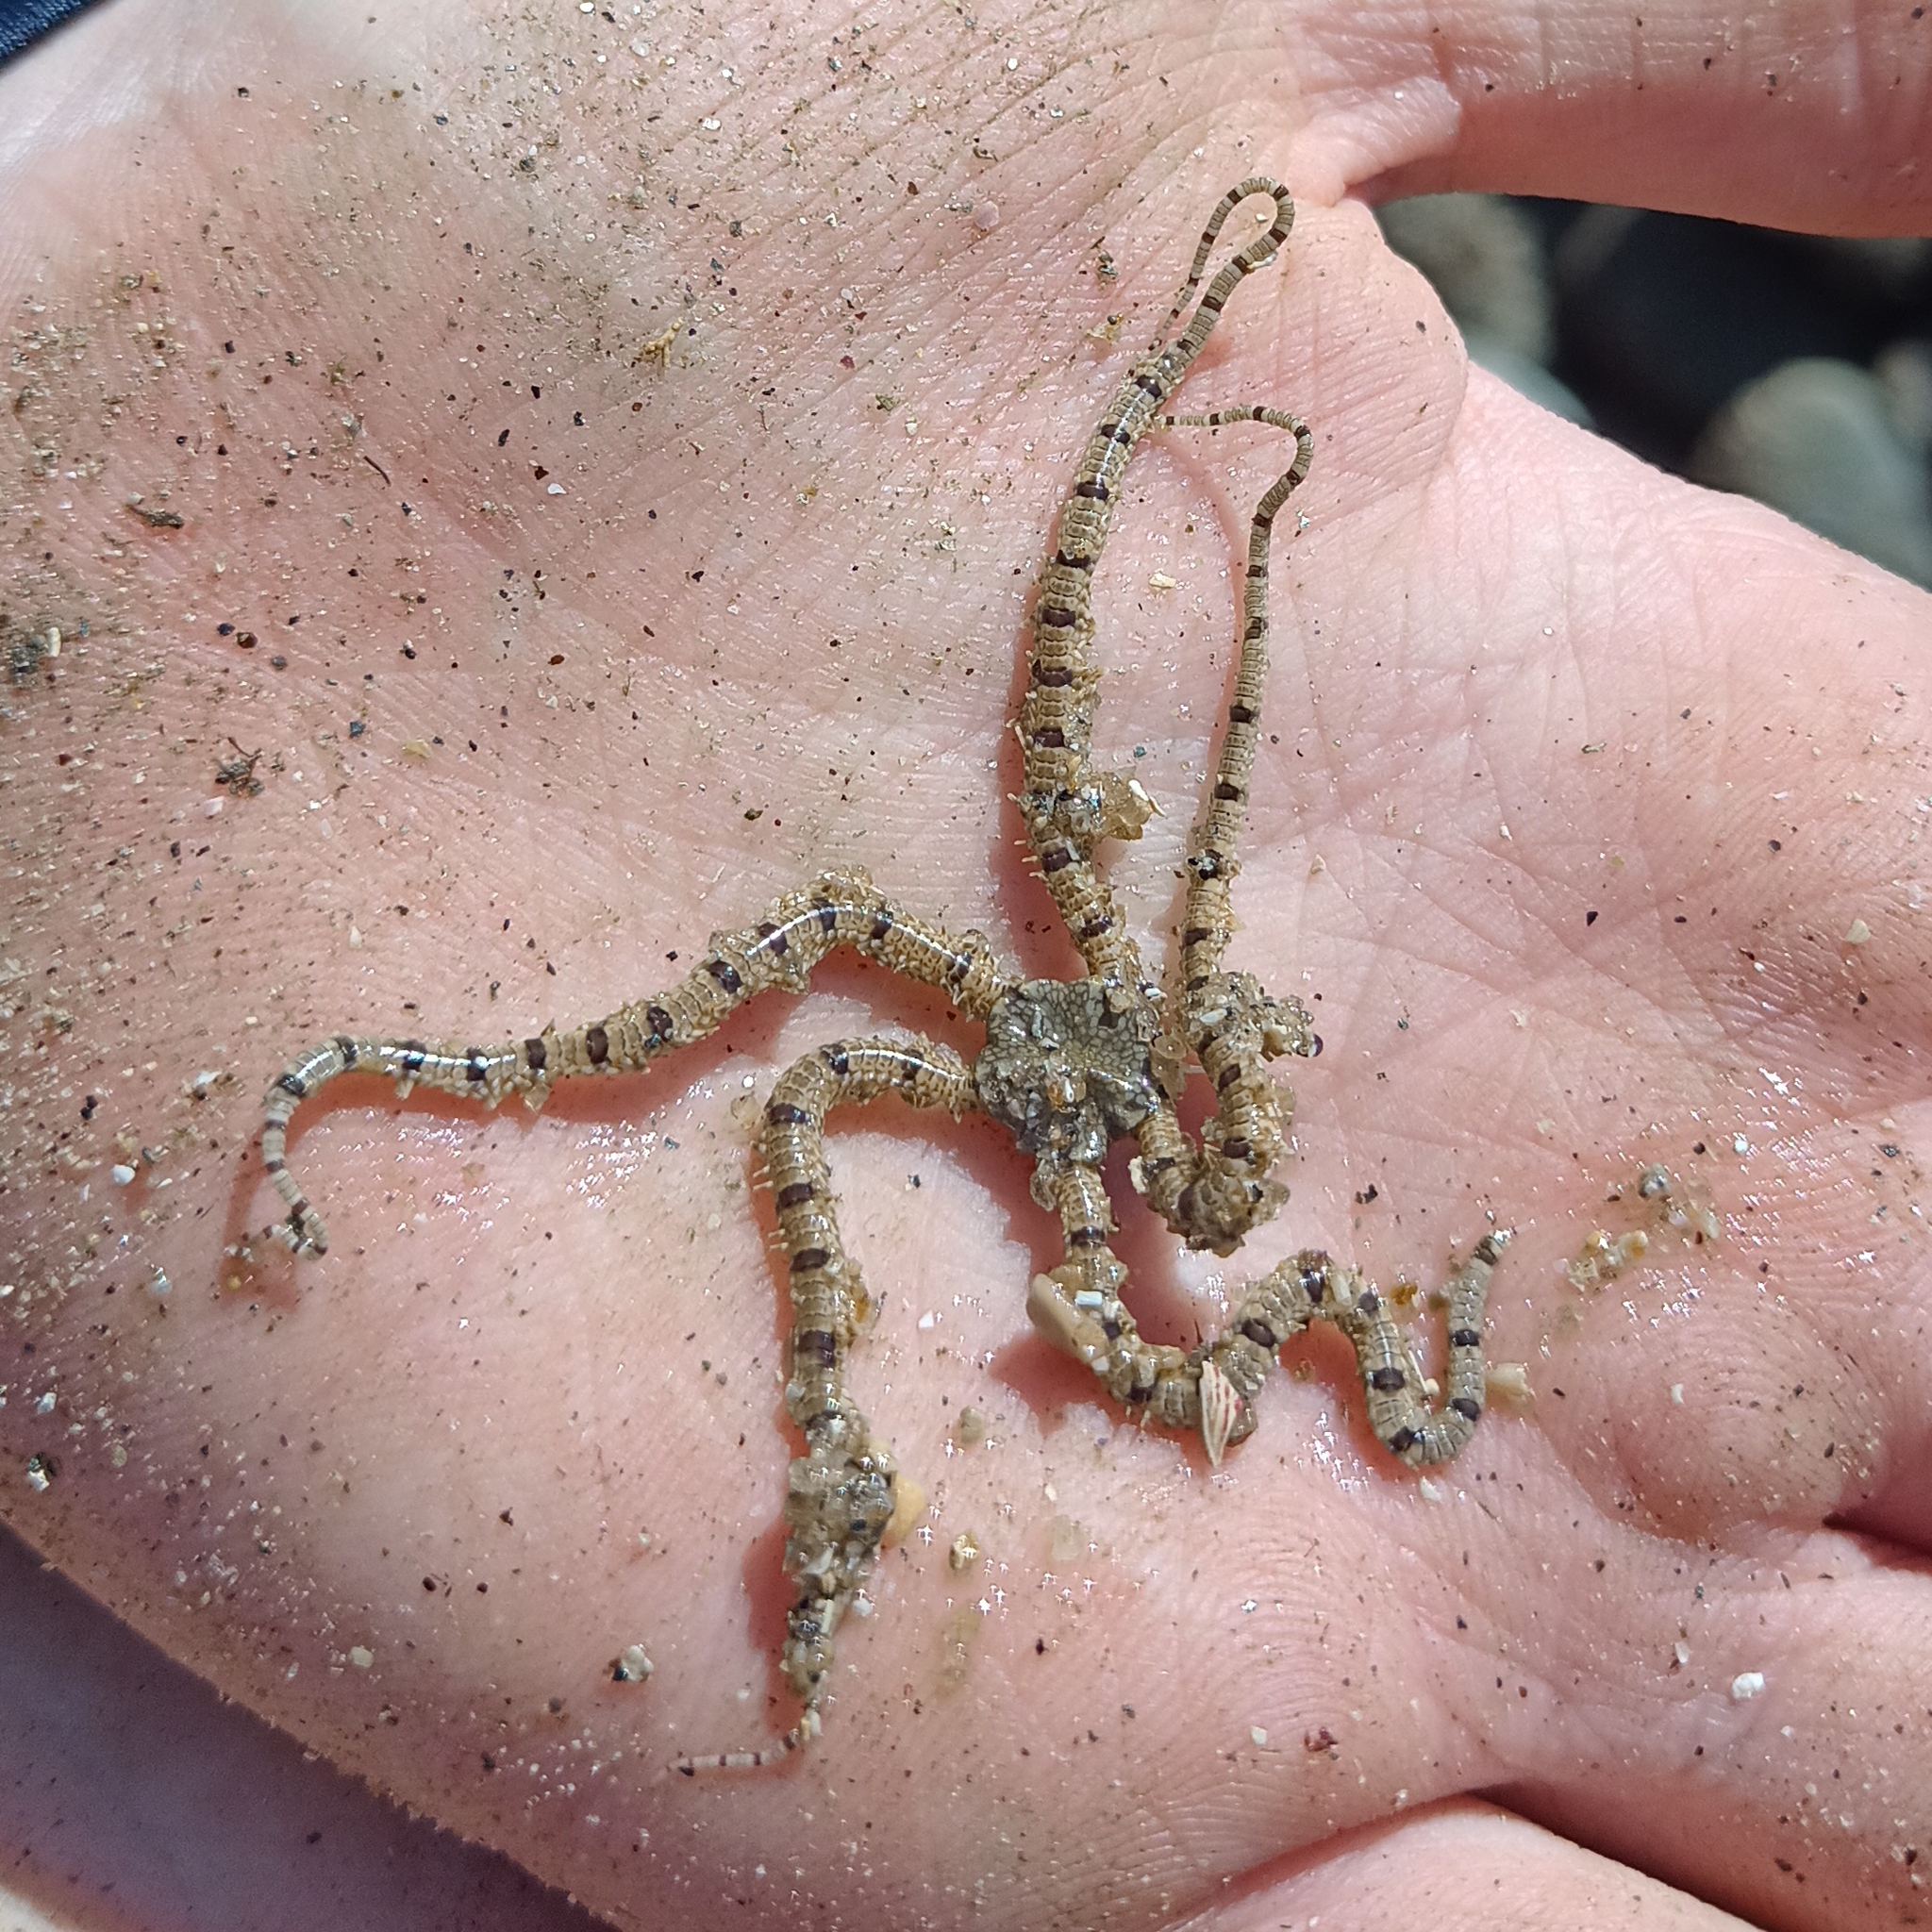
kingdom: Animalia
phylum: Echinodermata
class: Ophiuroidea
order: Amphilepidida
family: Ophionereididae
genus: Ophionereis
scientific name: Ophionereis reticulata
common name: Reticulate brittle star
